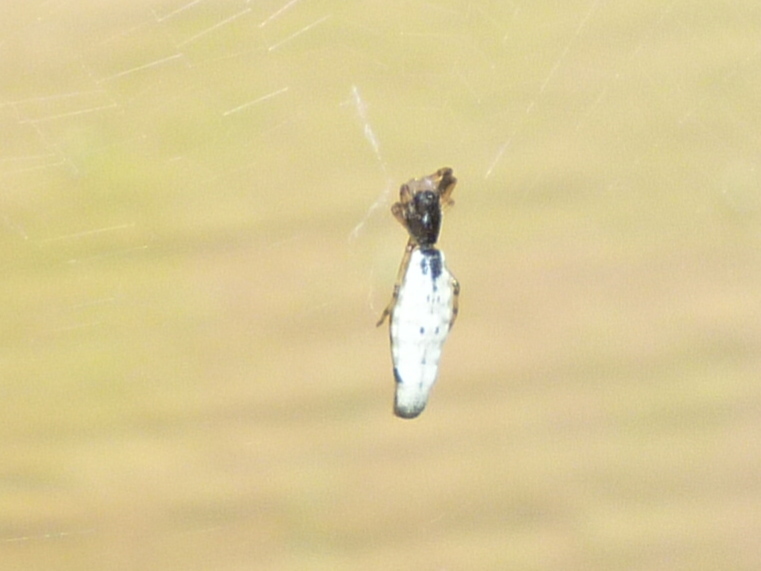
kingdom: Animalia
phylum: Arthropoda
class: Arachnida
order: Araneae
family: Araneidae
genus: Micrathena
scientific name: Micrathena gracilis
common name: Orb weavers
